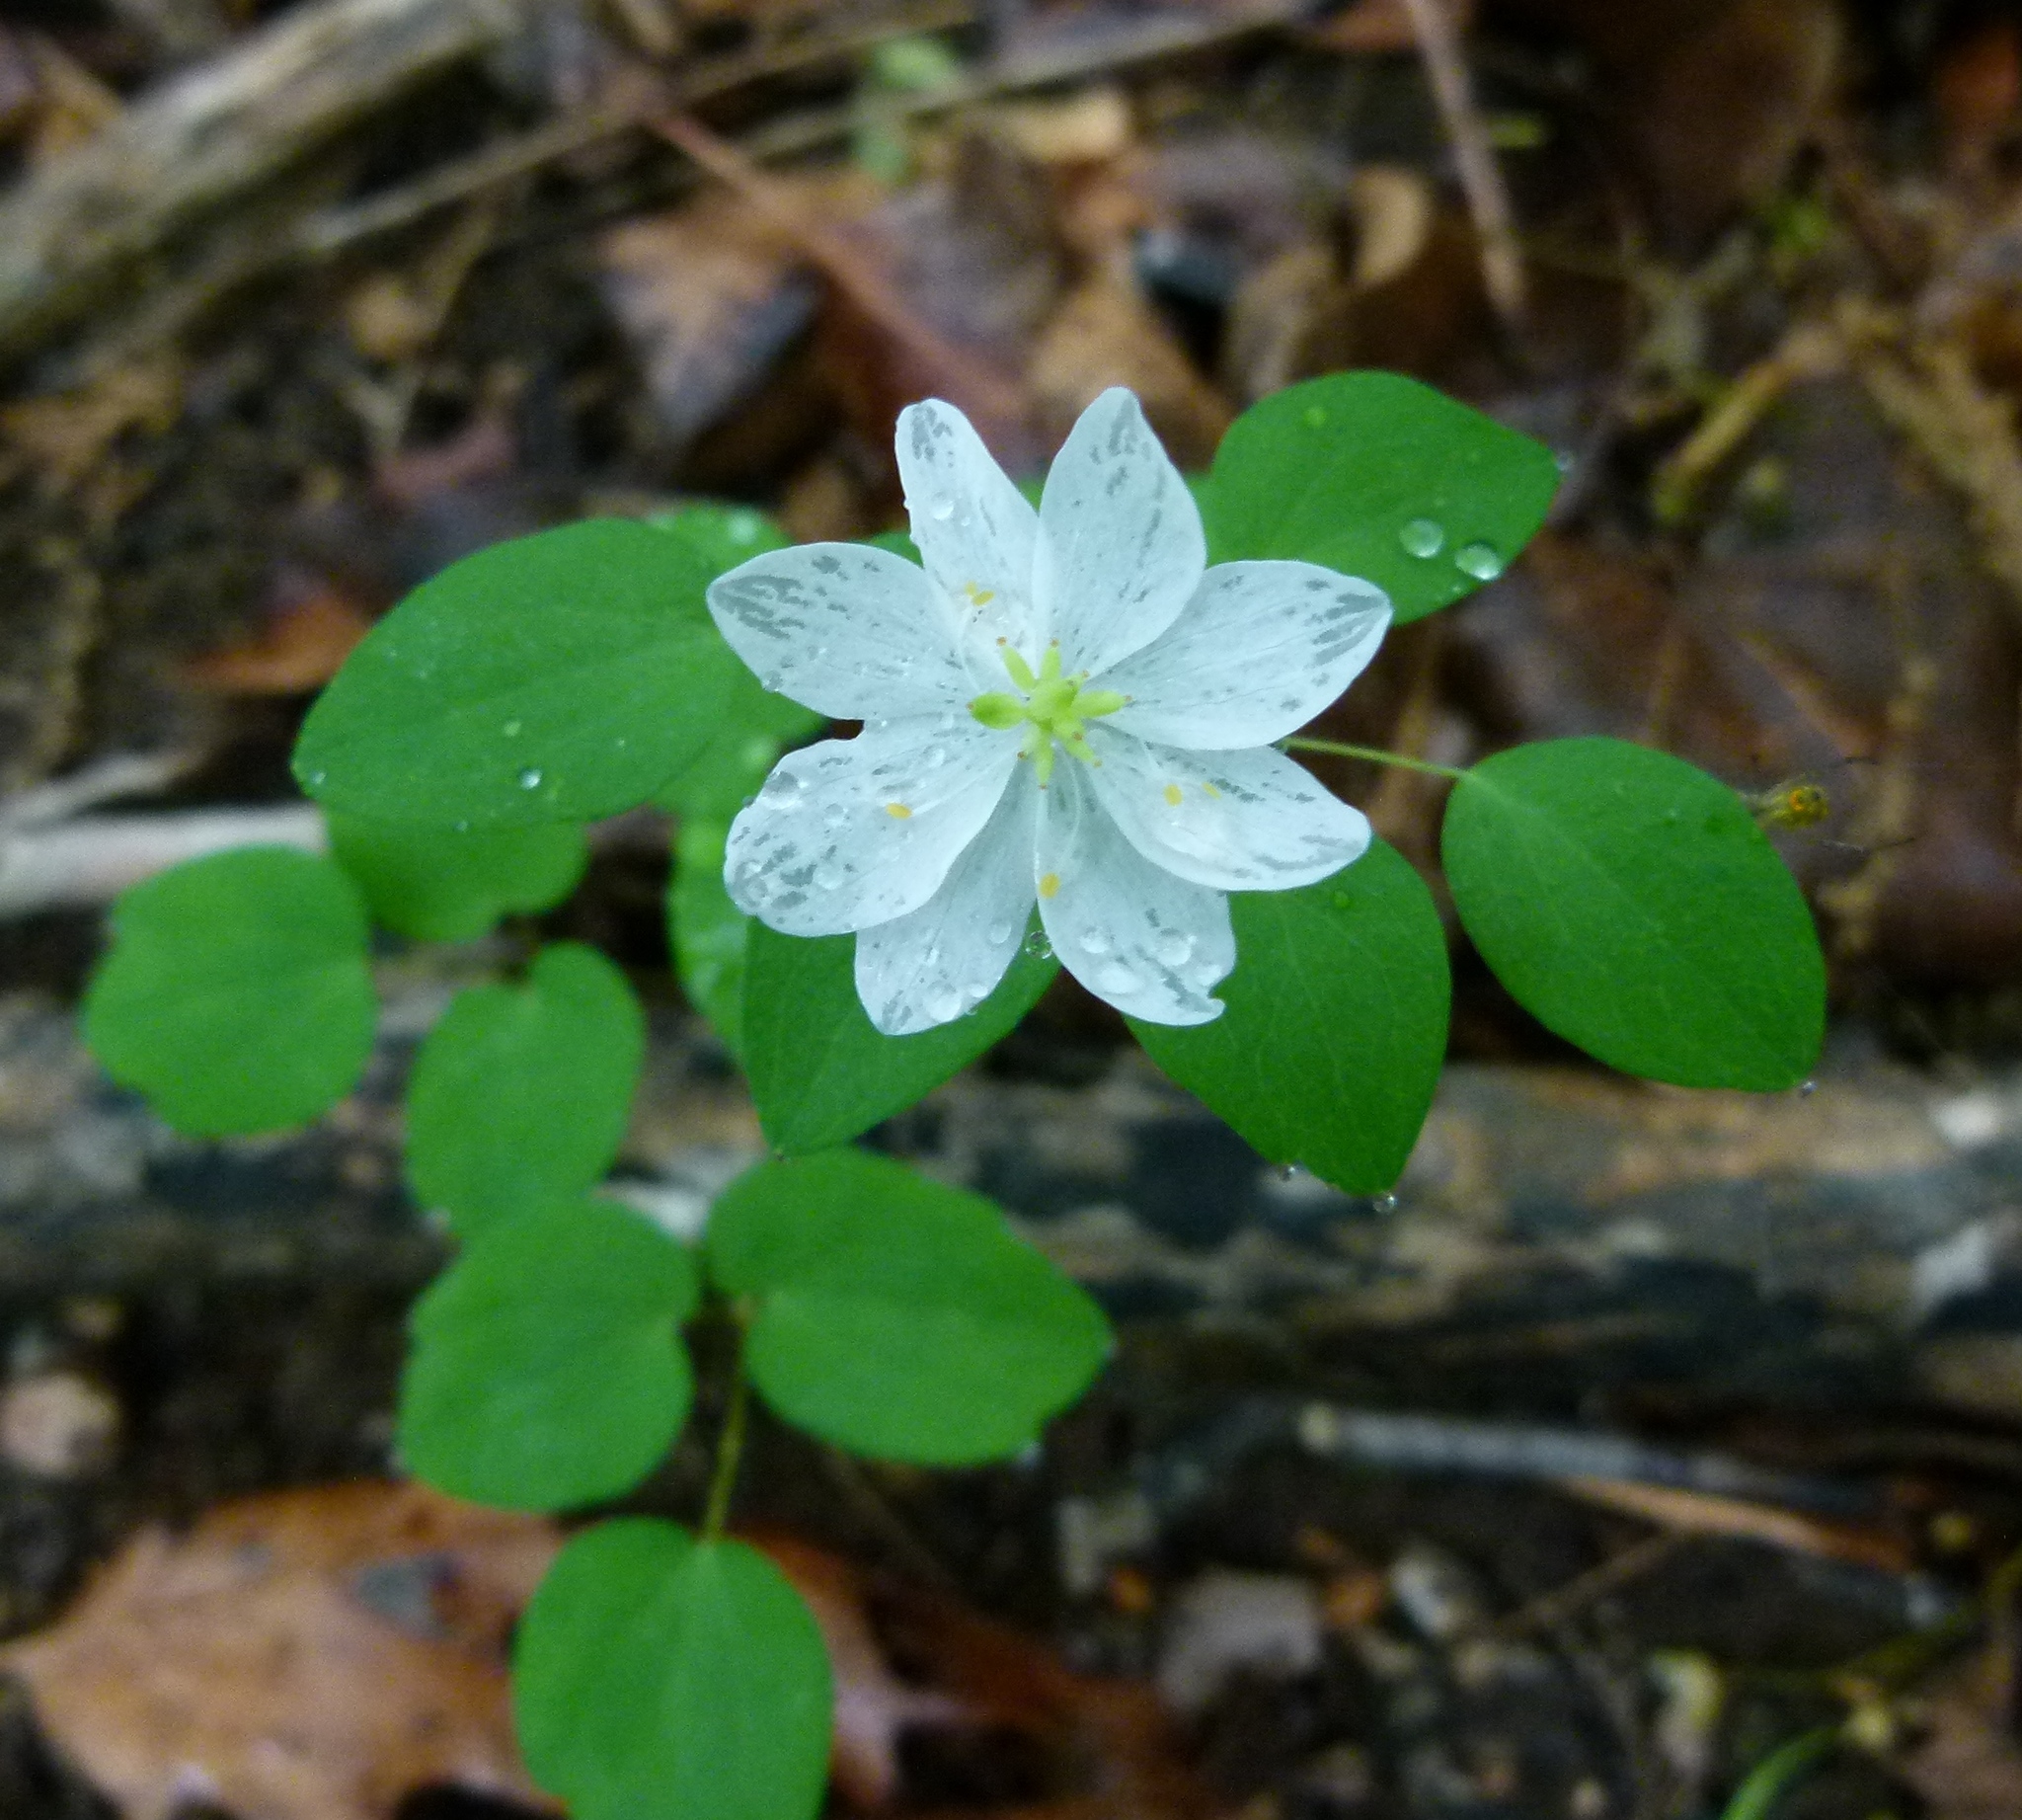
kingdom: Plantae
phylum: Tracheophyta
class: Magnoliopsida
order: Ranunculales
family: Ranunculaceae
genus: Thalictrum
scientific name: Thalictrum thalictroides
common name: Rue-anemone
